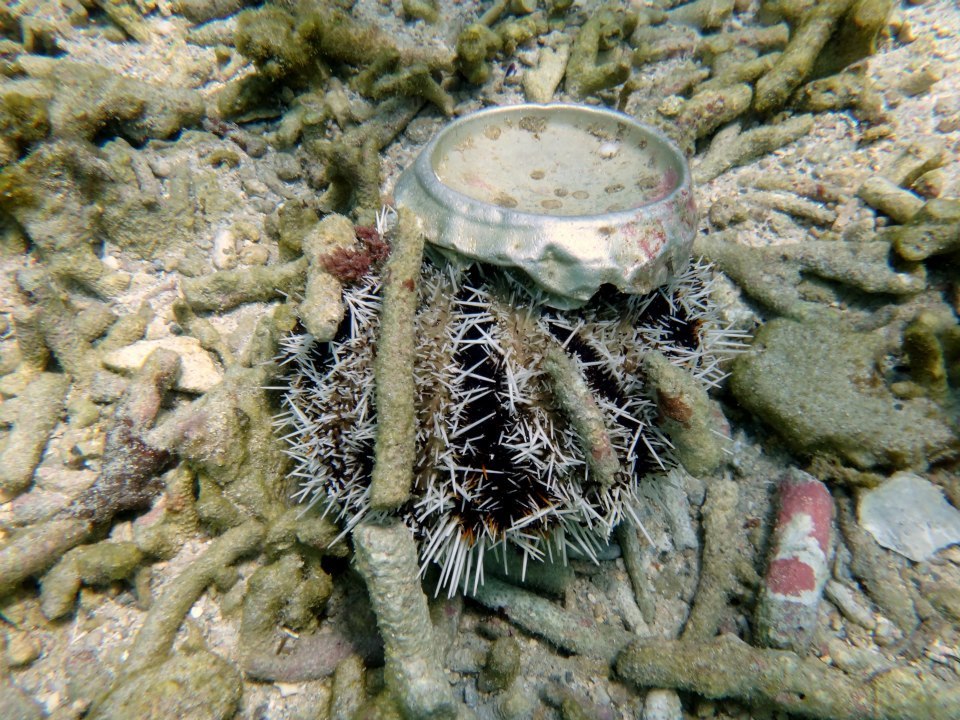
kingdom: Animalia
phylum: Echinodermata
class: Echinoidea
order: Camarodonta
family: Toxopneustidae
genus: Tripneustes
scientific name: Tripneustes gratilla
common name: Bischofsmützenseeigel
